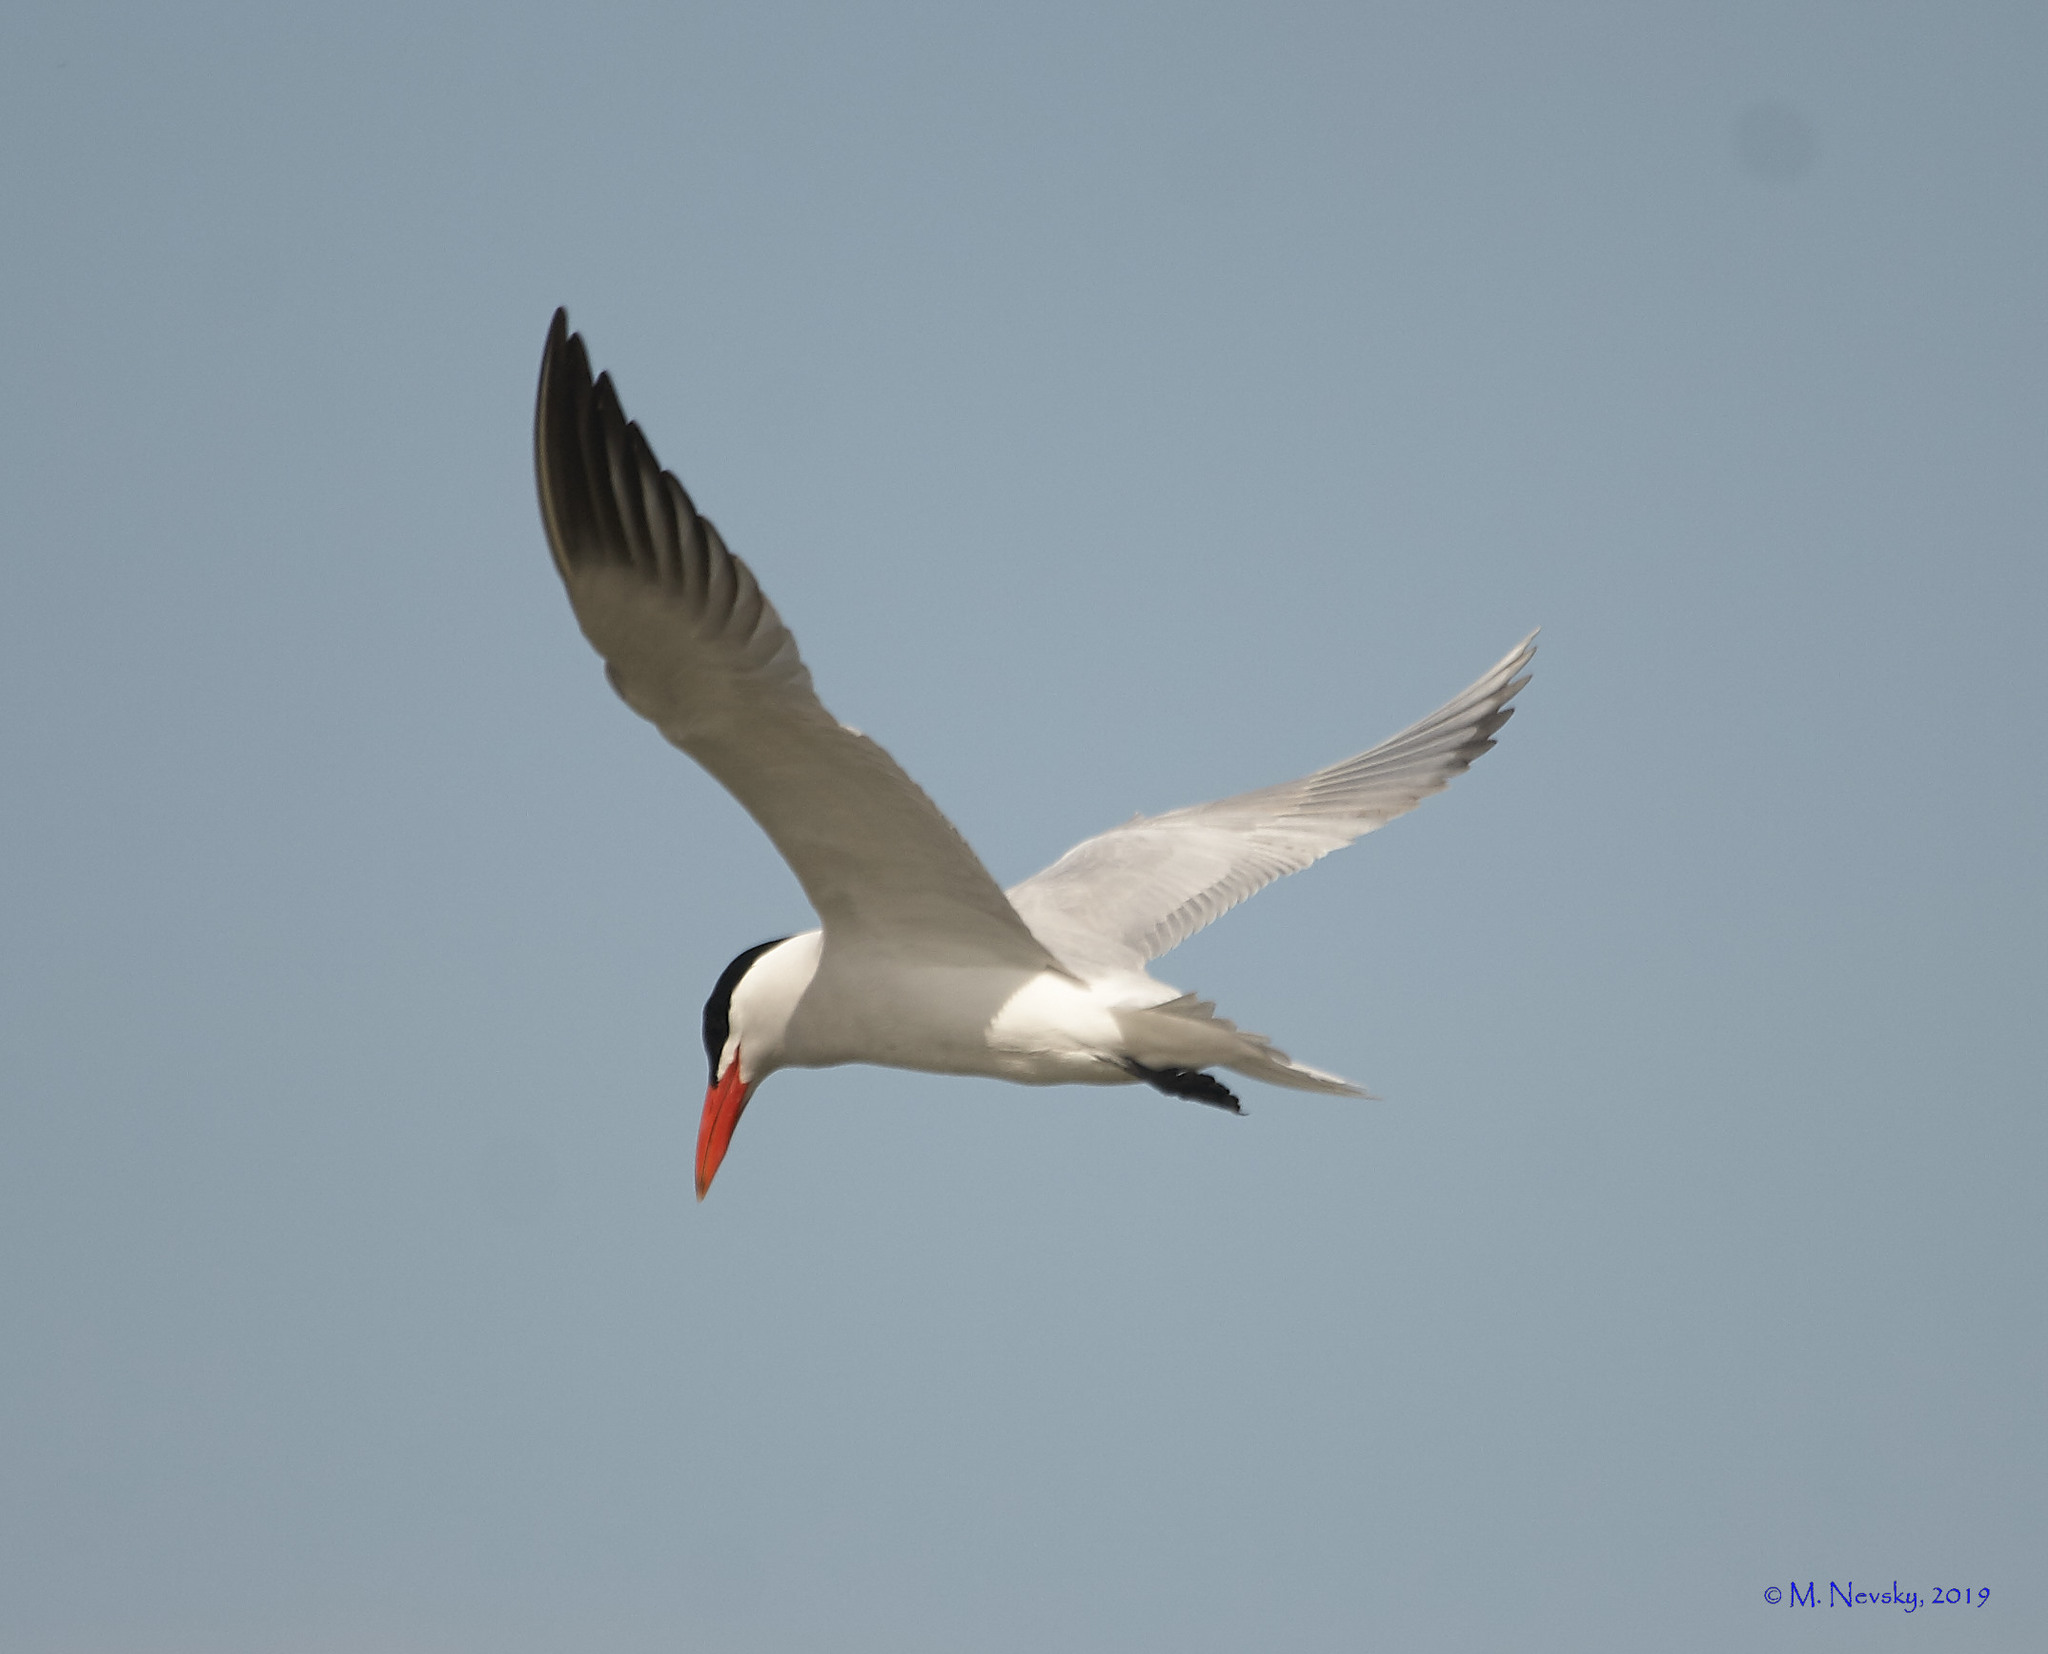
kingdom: Animalia
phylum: Chordata
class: Aves
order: Charadriiformes
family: Laridae
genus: Hydroprogne
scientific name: Hydroprogne caspia
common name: Caspian tern
